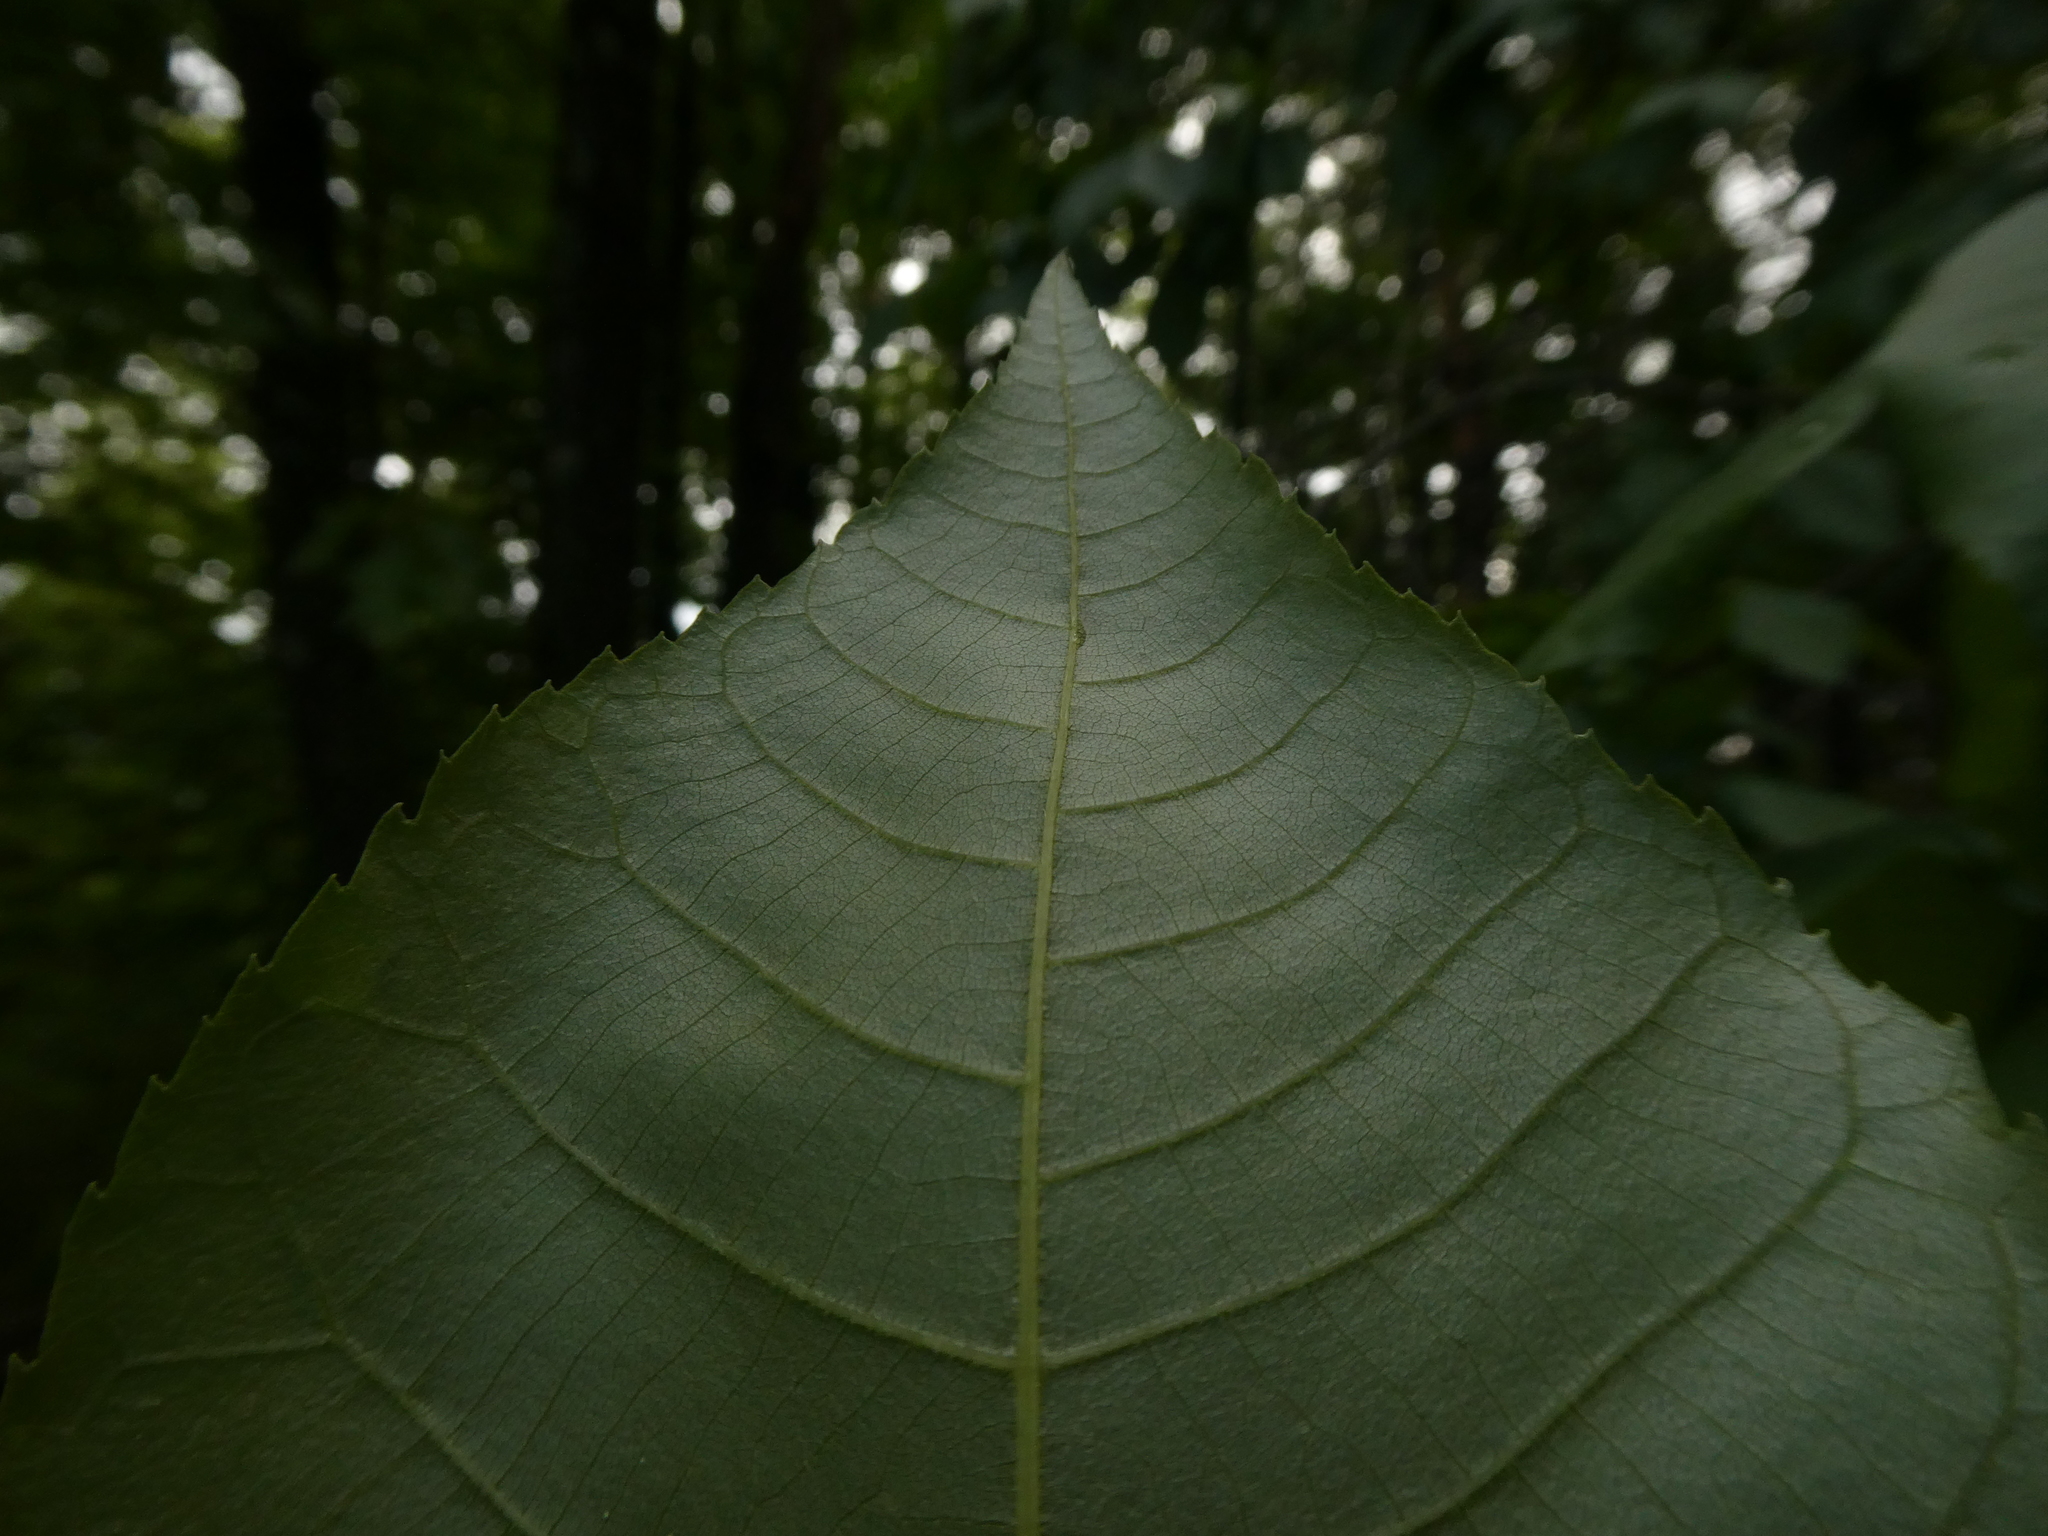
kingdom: Plantae
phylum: Tracheophyta
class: Magnoliopsida
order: Fagales
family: Juglandaceae
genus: Carya
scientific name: Carya glabra
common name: Pignut hickory
